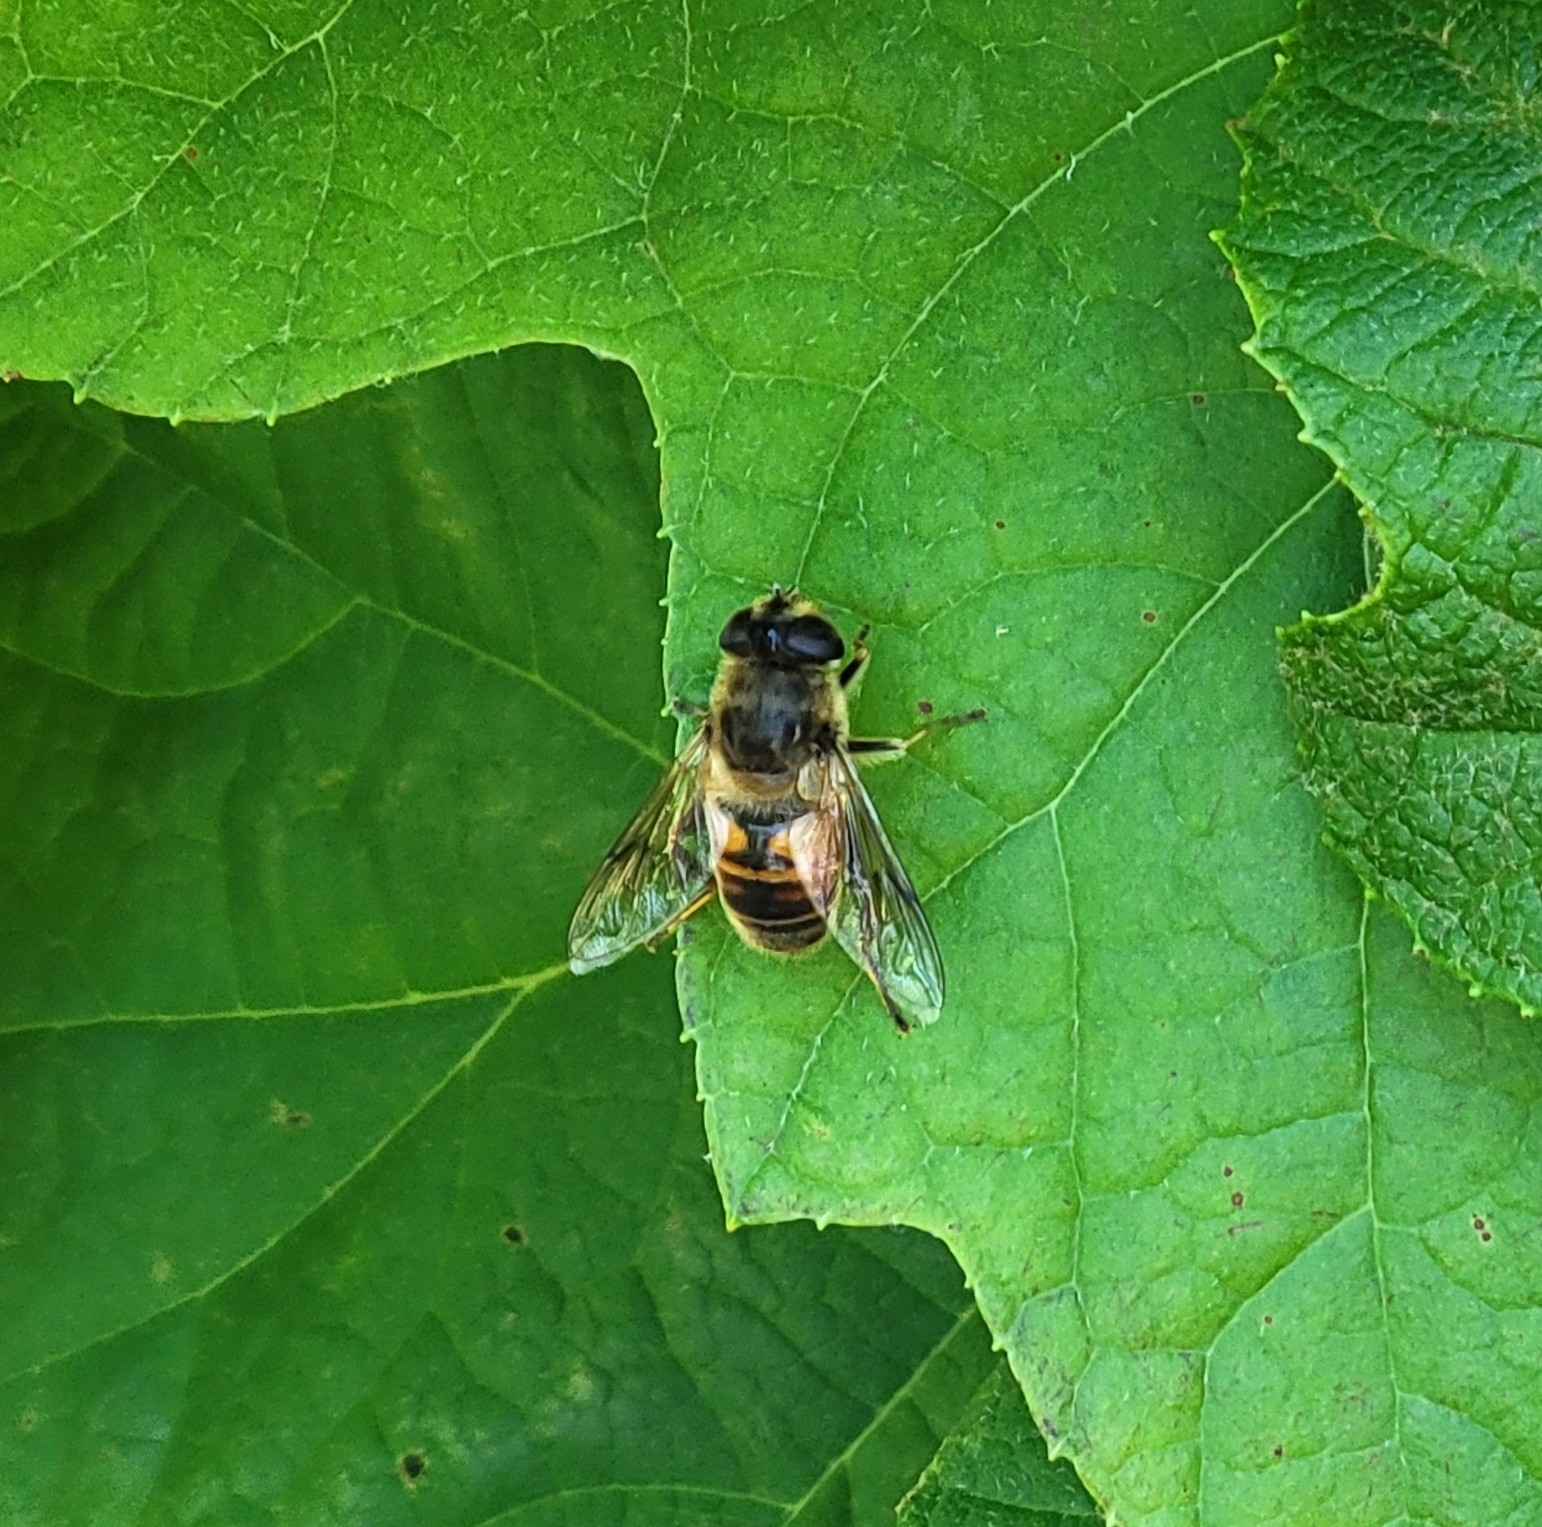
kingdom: Animalia
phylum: Arthropoda
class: Insecta
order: Diptera
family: Syrphidae
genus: Eristalis
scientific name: Eristalis tenax
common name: Drone fly
